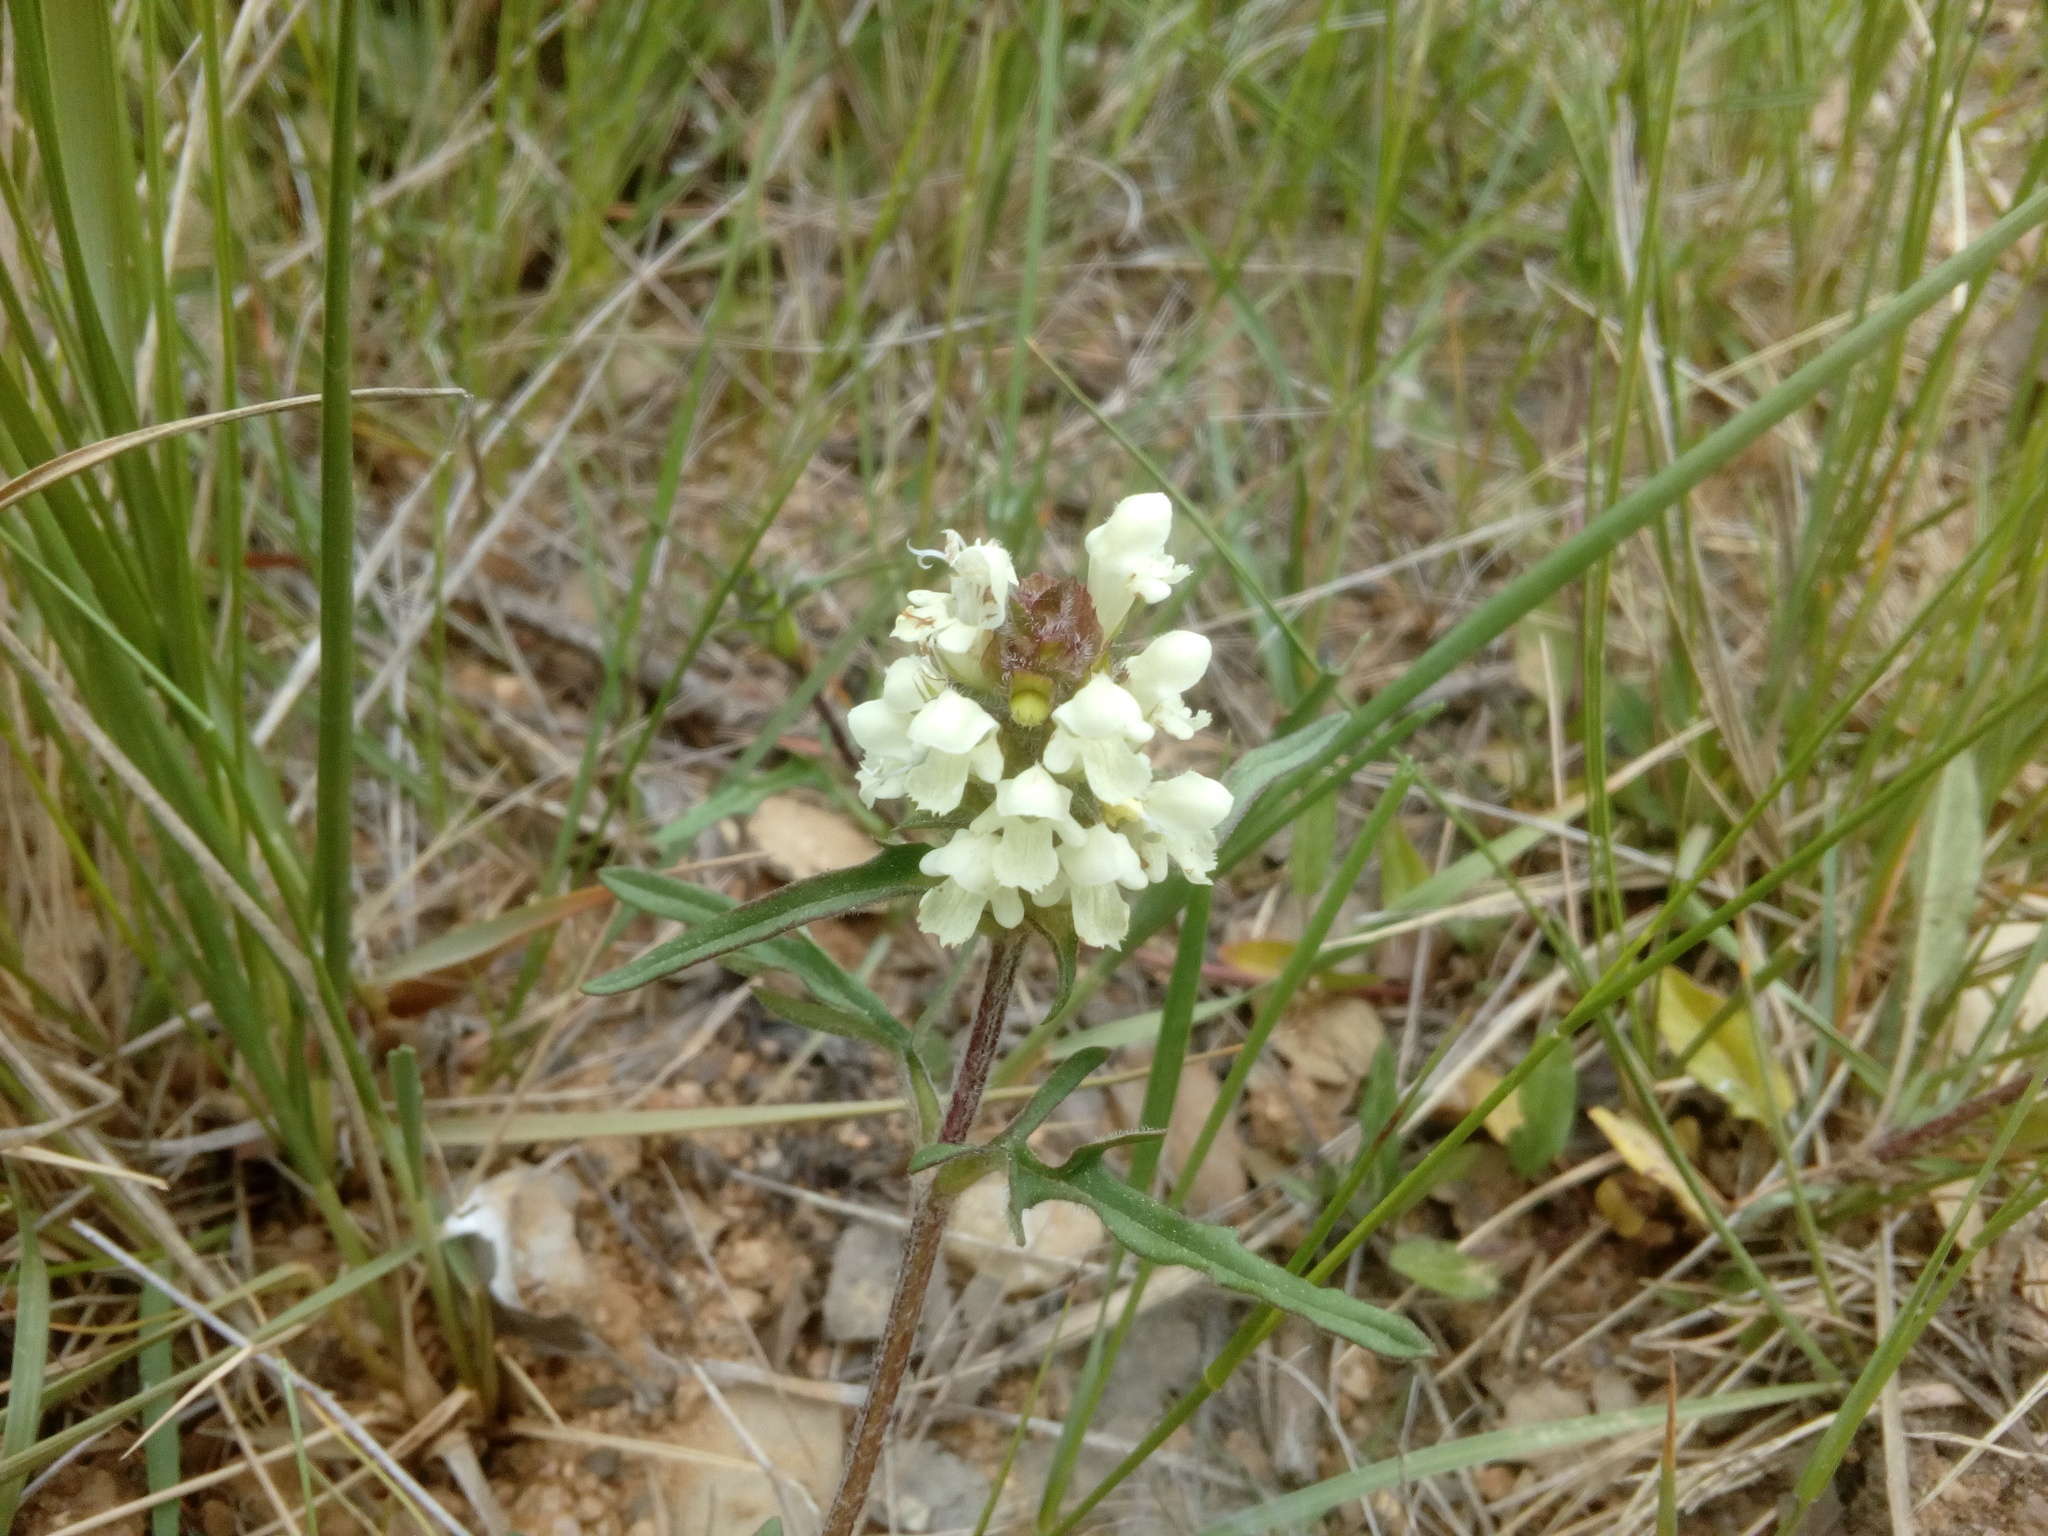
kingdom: Plantae
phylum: Tracheophyta
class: Magnoliopsida
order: Lamiales
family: Lamiaceae
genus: Prunella
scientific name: Prunella laciniata
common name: Cut-leaved selfheal
